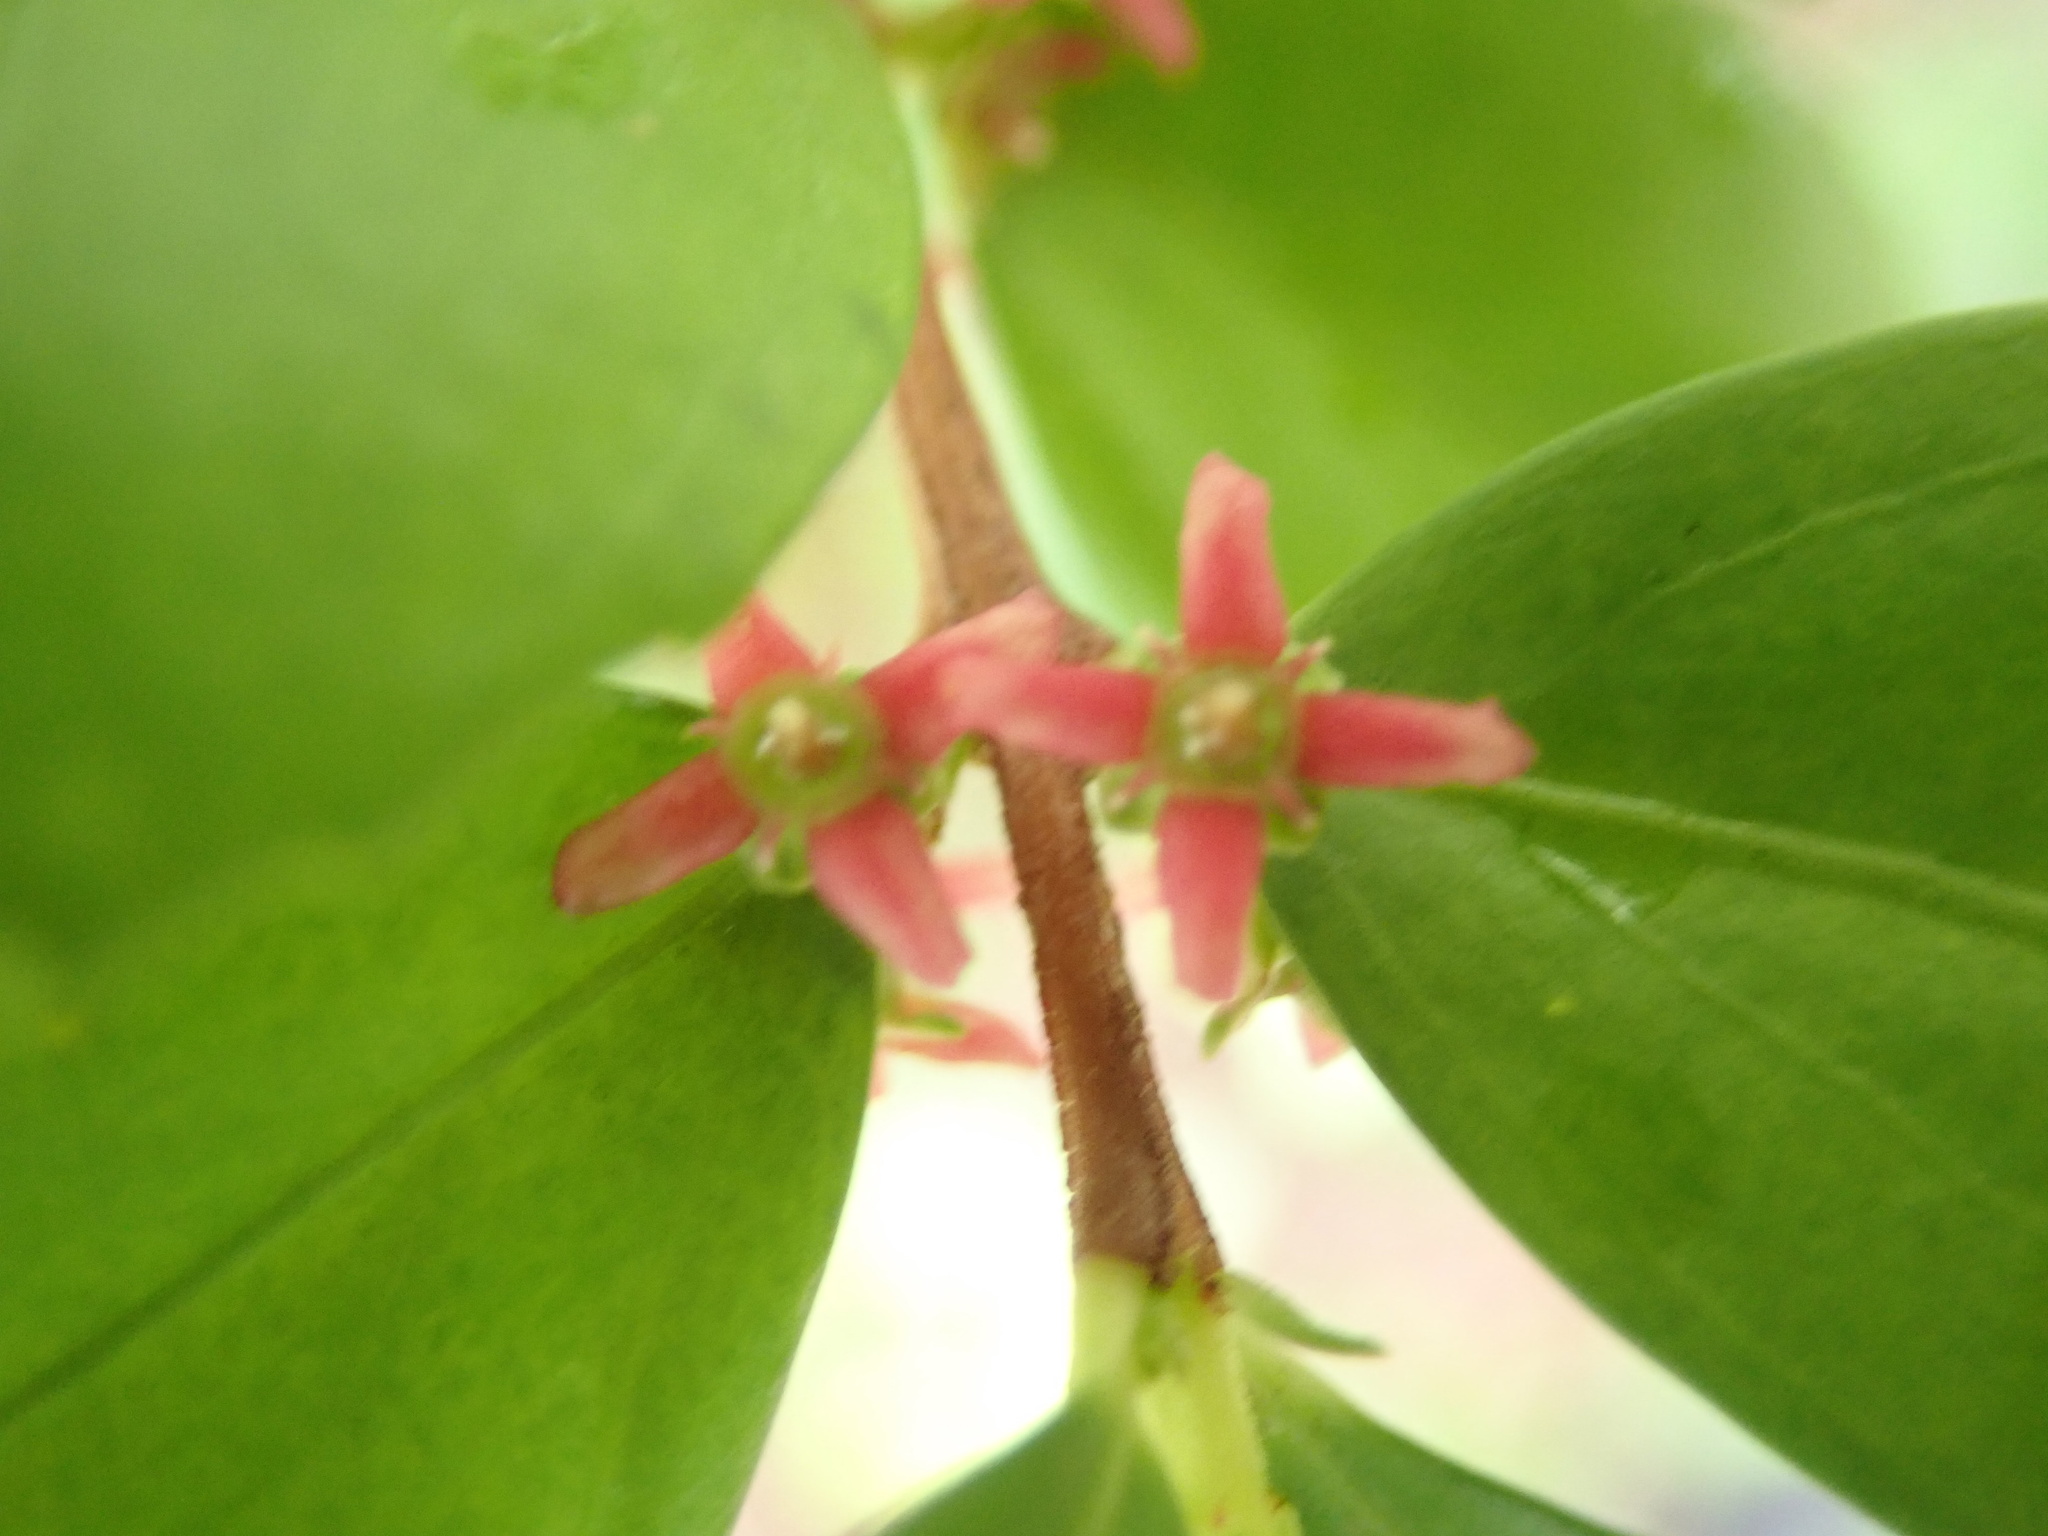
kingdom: Plantae
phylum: Tracheophyta
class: Magnoliopsida
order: Celastrales
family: Celastraceae
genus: Paxistima
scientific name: Paxistima myrsinites
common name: Mountain-lover
